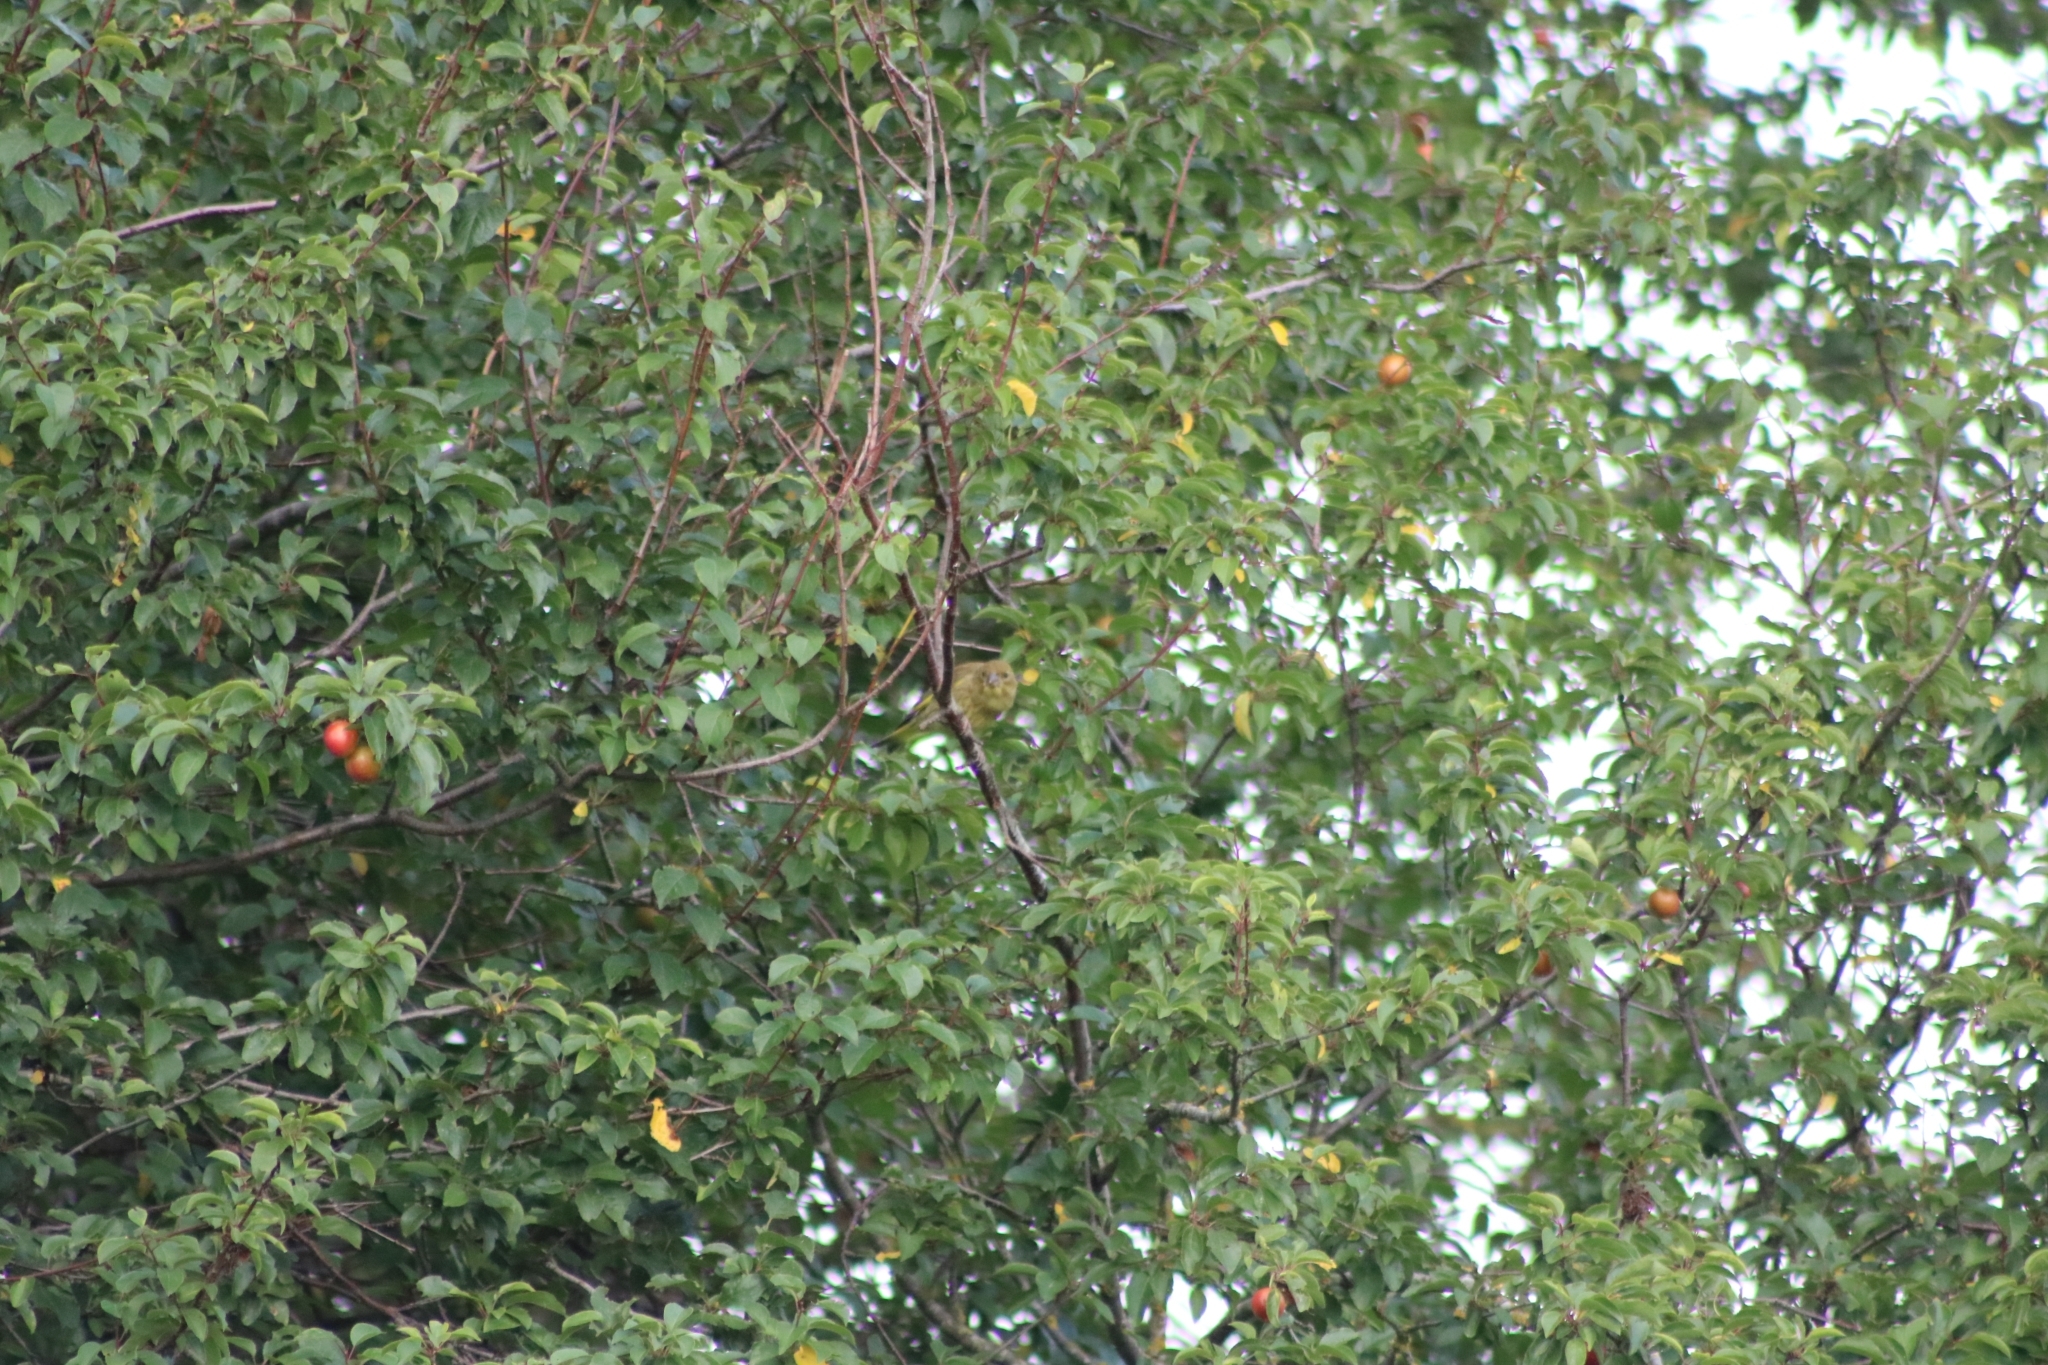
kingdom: Plantae
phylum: Tracheophyta
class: Liliopsida
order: Poales
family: Poaceae
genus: Chloris
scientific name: Chloris chloris
